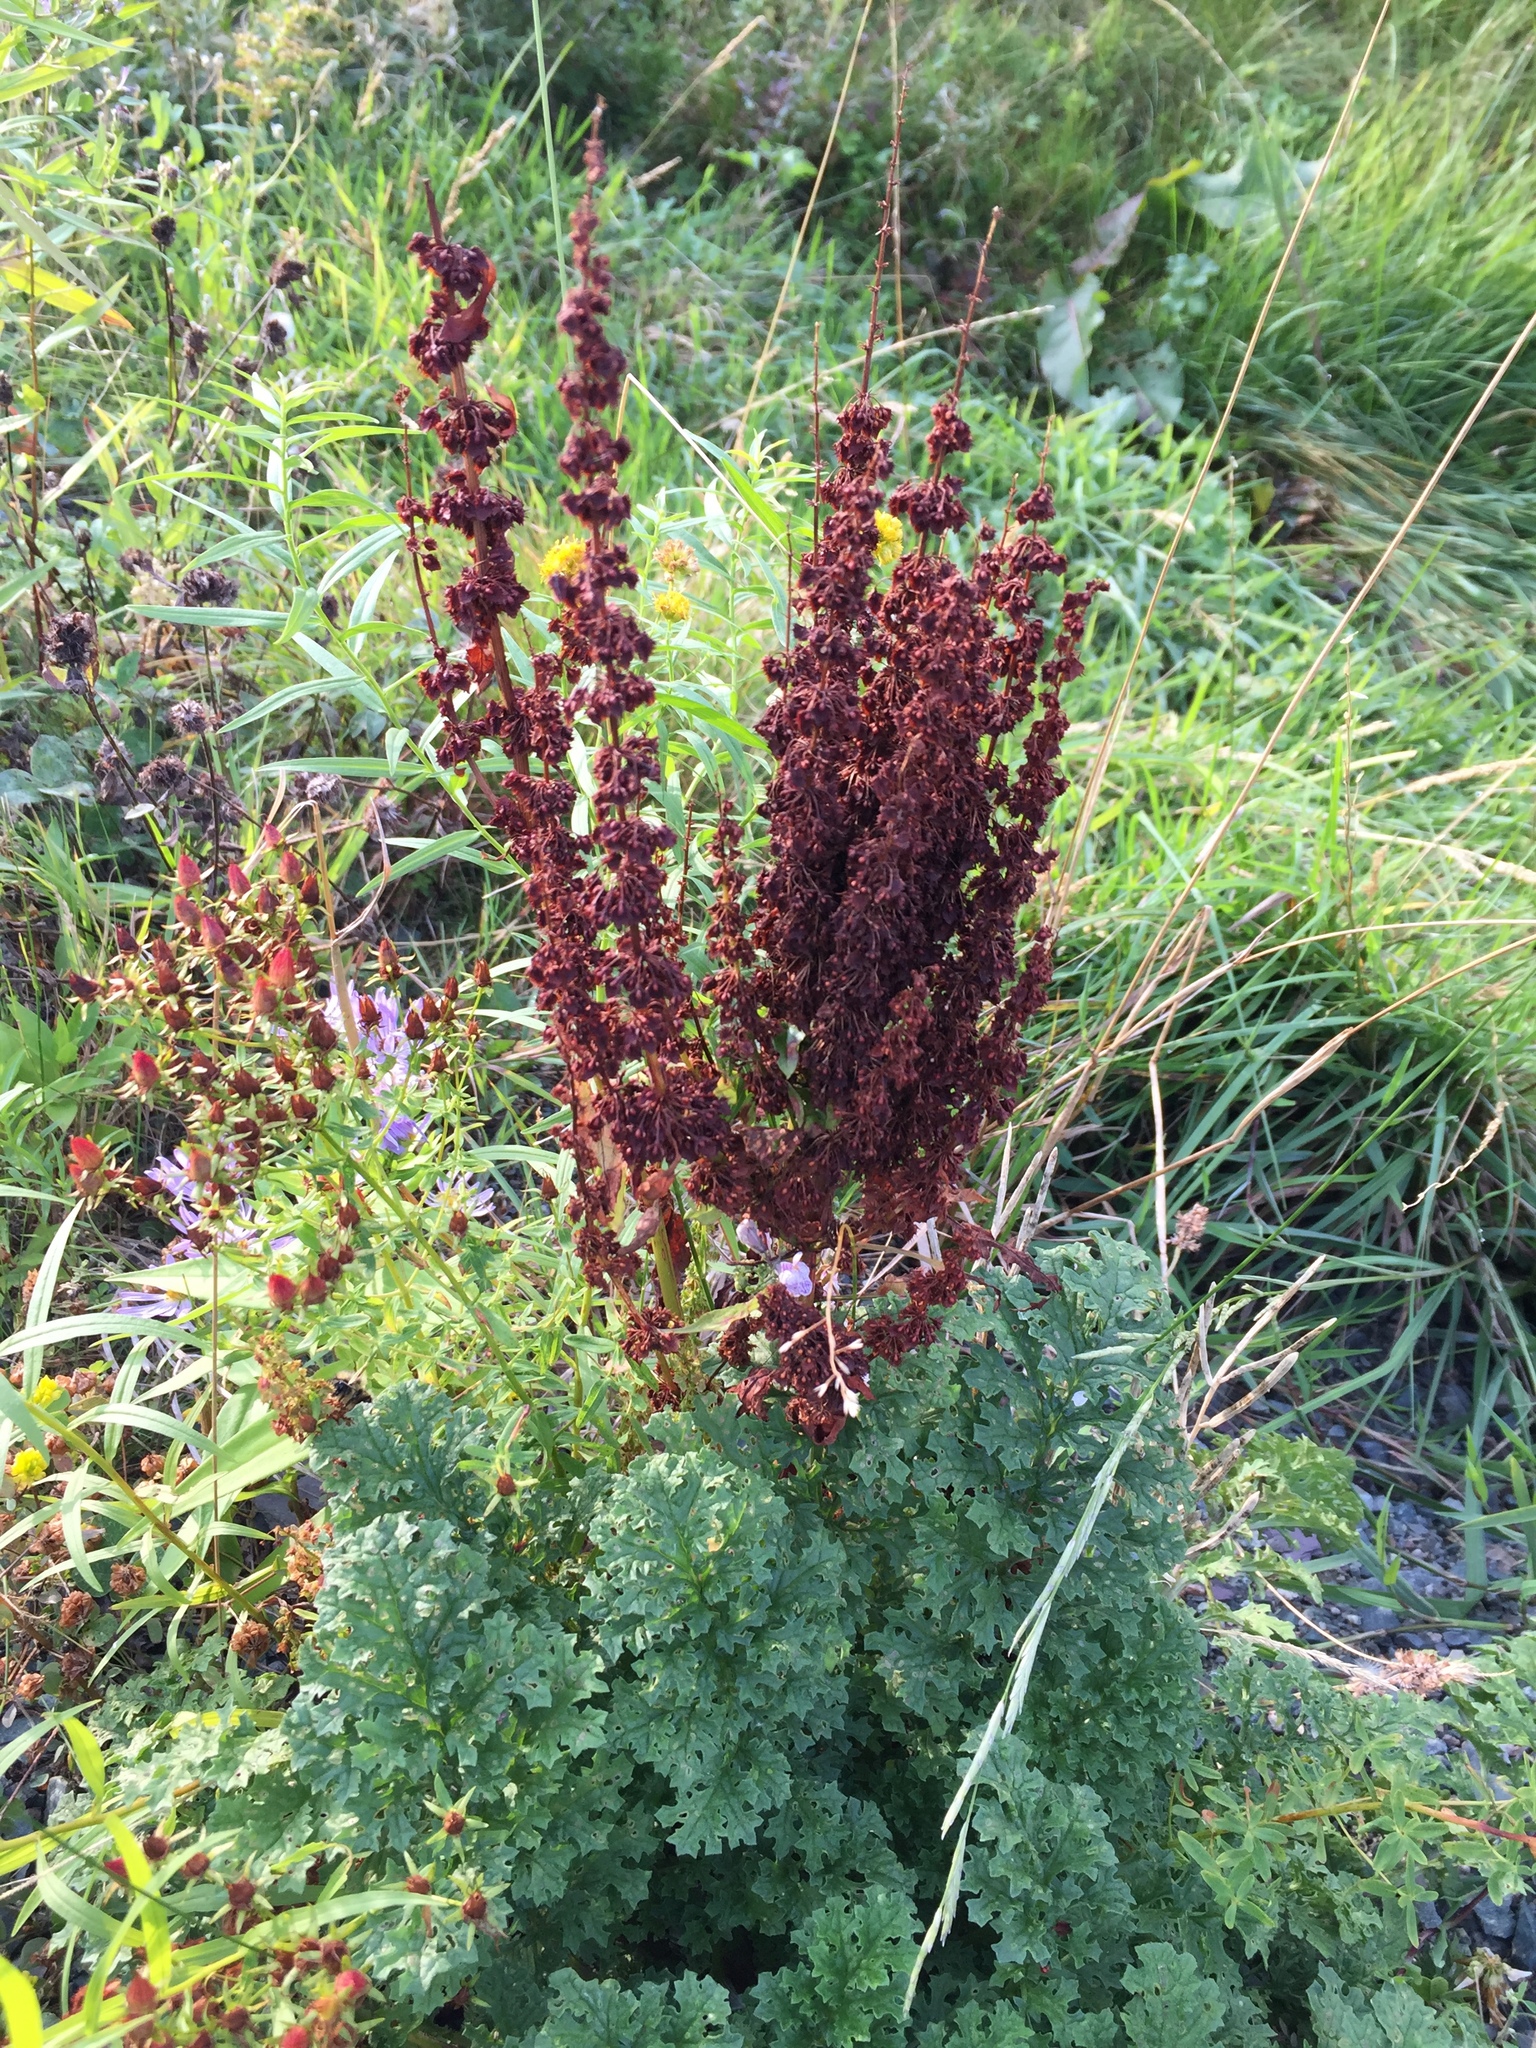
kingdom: Plantae
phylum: Tracheophyta
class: Magnoliopsida
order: Caryophyllales
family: Polygonaceae
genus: Rumex
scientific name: Rumex crispus
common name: Curled dock
